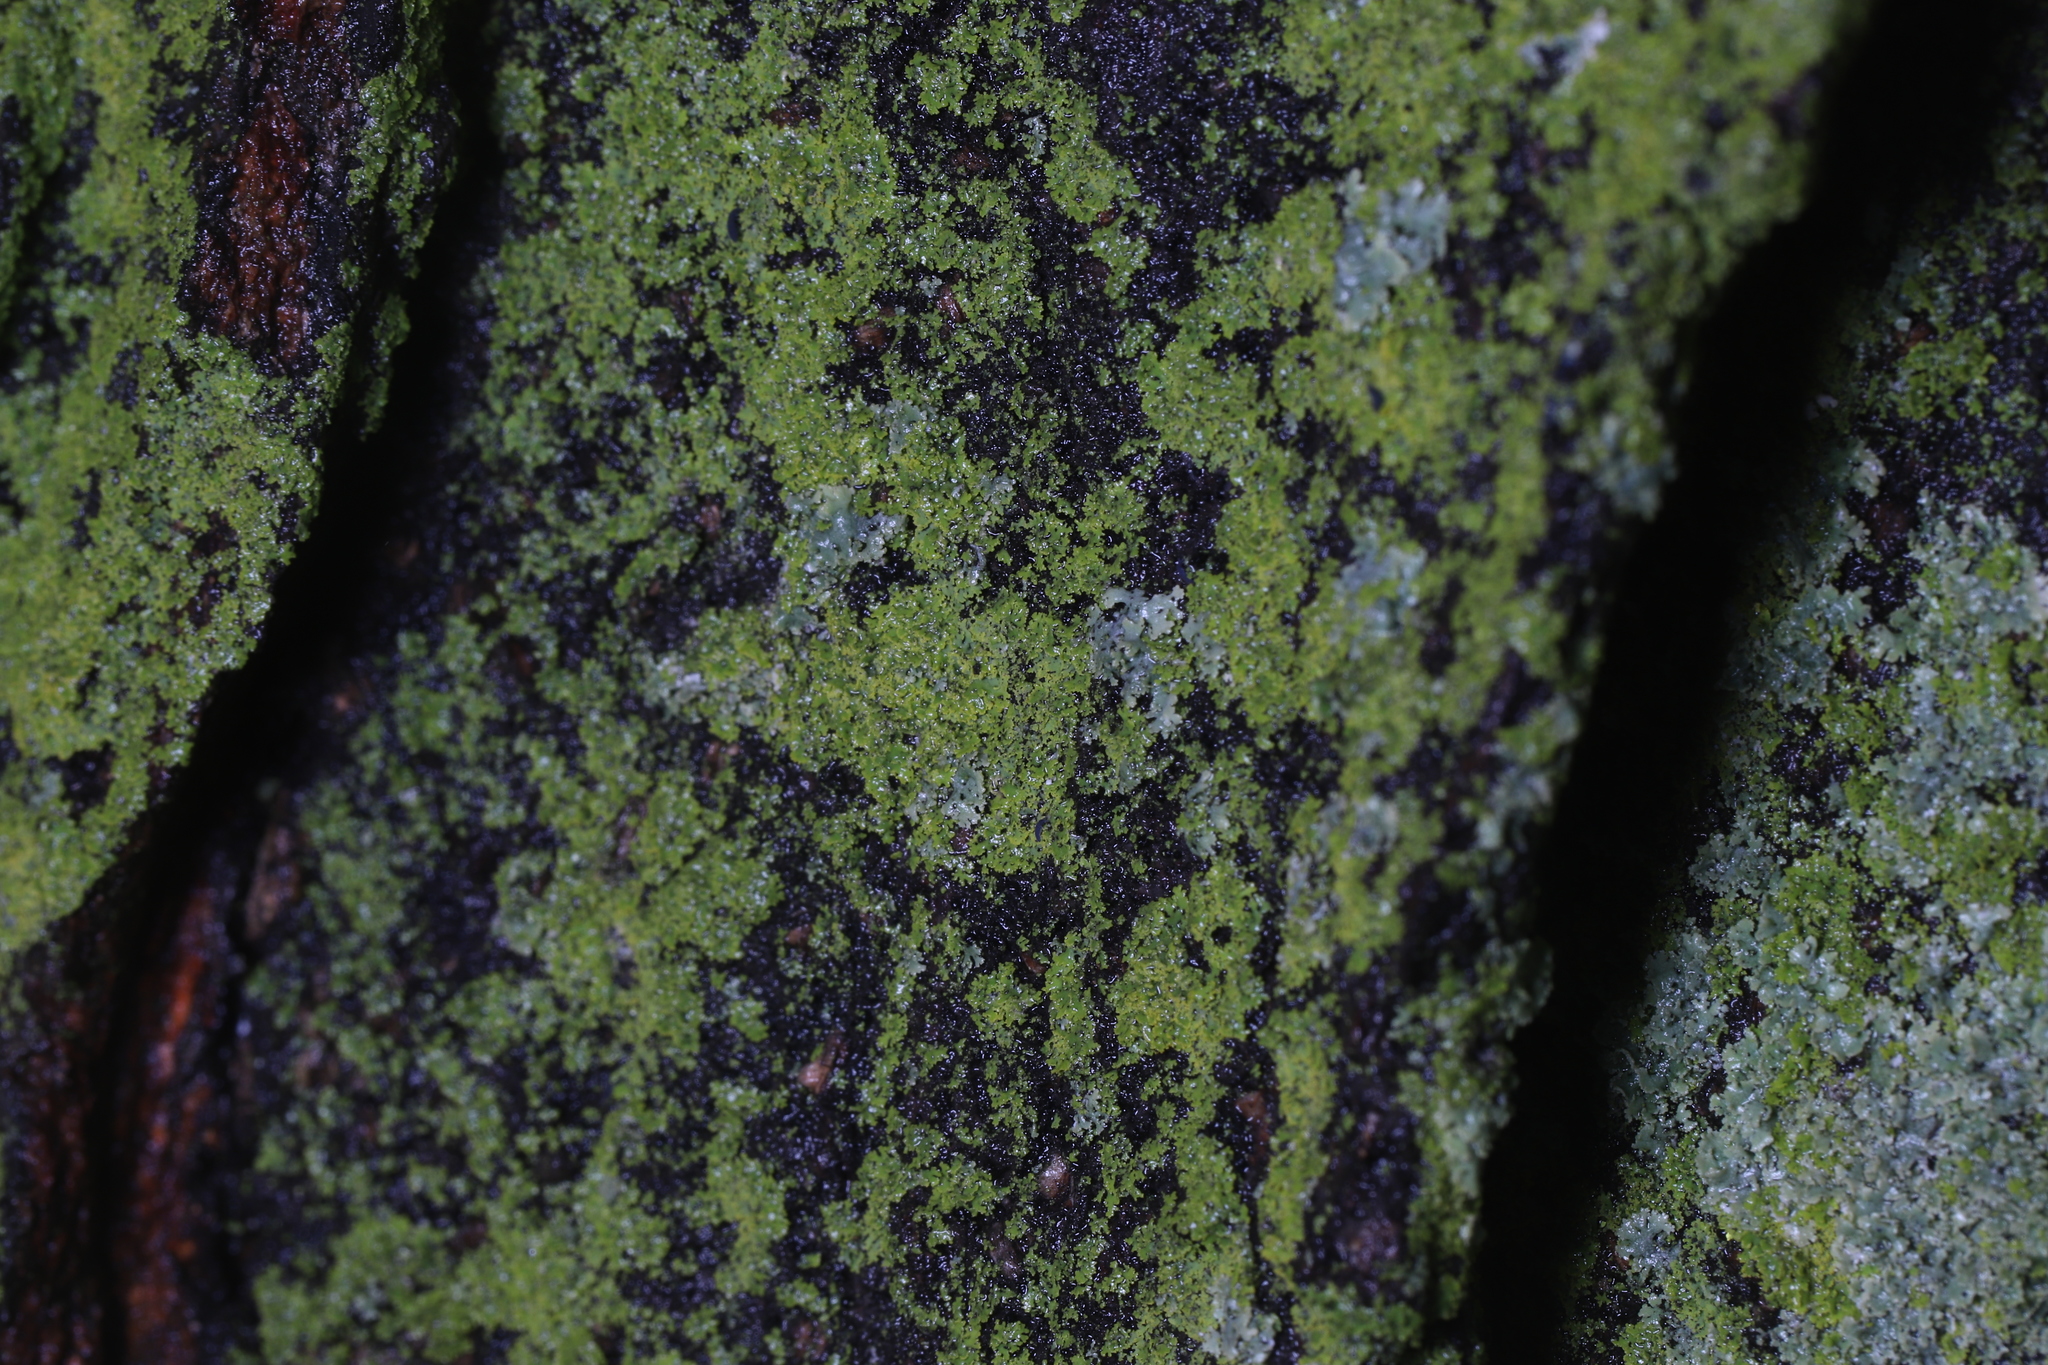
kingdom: Fungi
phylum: Ascomycota
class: Candelariomycetes
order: Candelariales
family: Candelariaceae
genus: Candelaria
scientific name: Candelaria concolor
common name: Candleflame lichen
